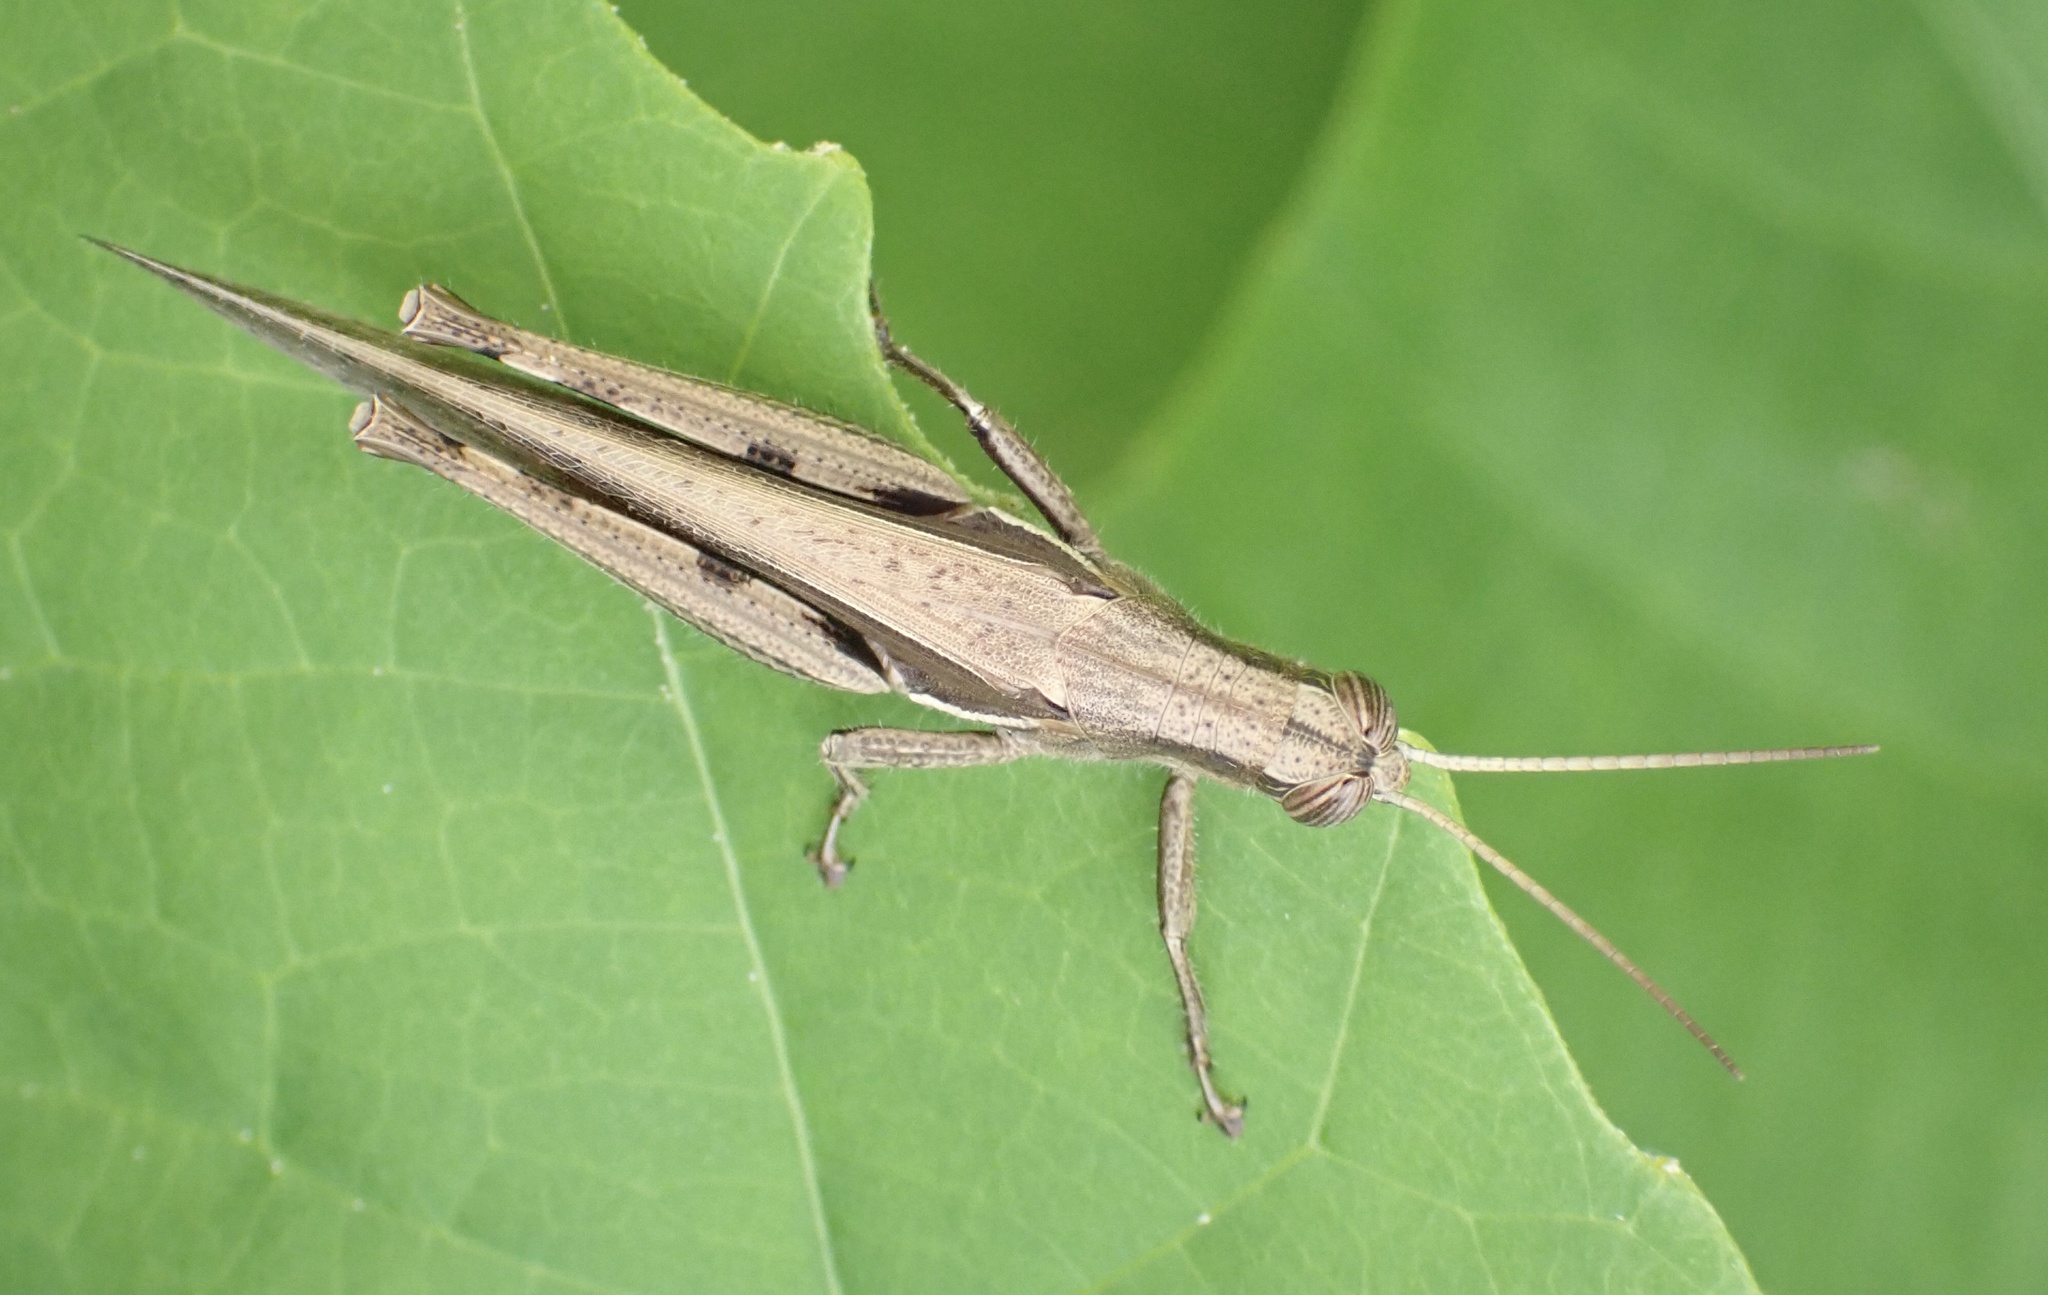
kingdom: Animalia
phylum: Arthropoda
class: Insecta
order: Orthoptera
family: Acrididae
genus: Stenocatantops
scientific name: Stenocatantops splendens
